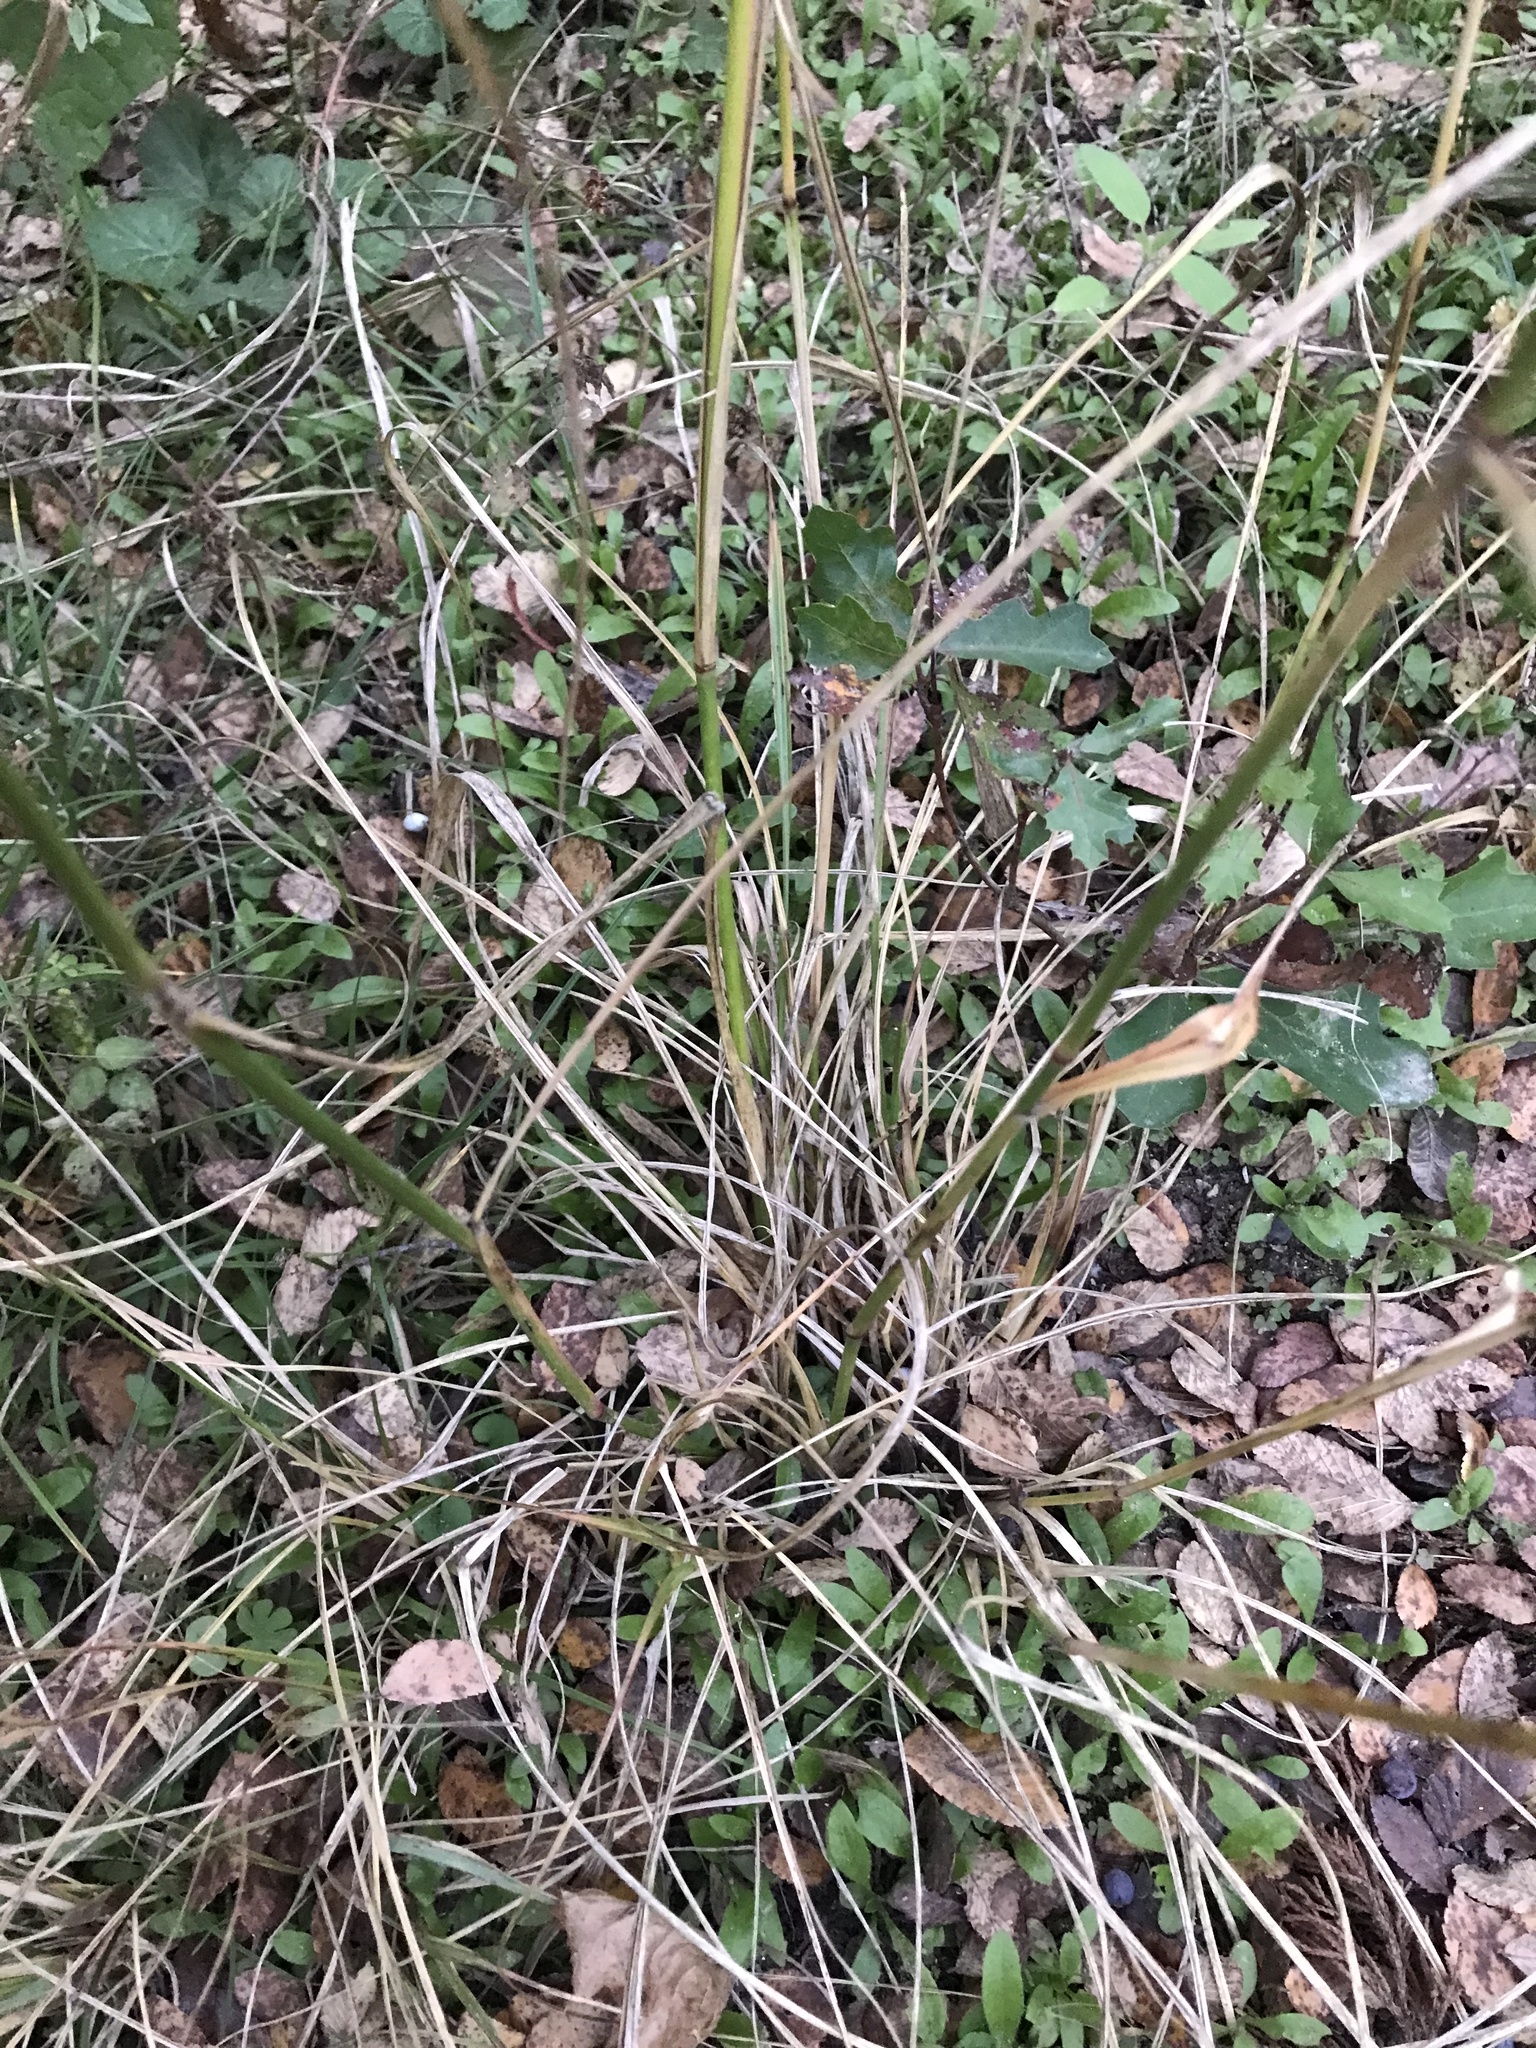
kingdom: Plantae
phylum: Tracheophyta
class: Liliopsida
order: Poales
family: Poaceae
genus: Tridens
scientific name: Tridens flavus
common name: Purpletop
